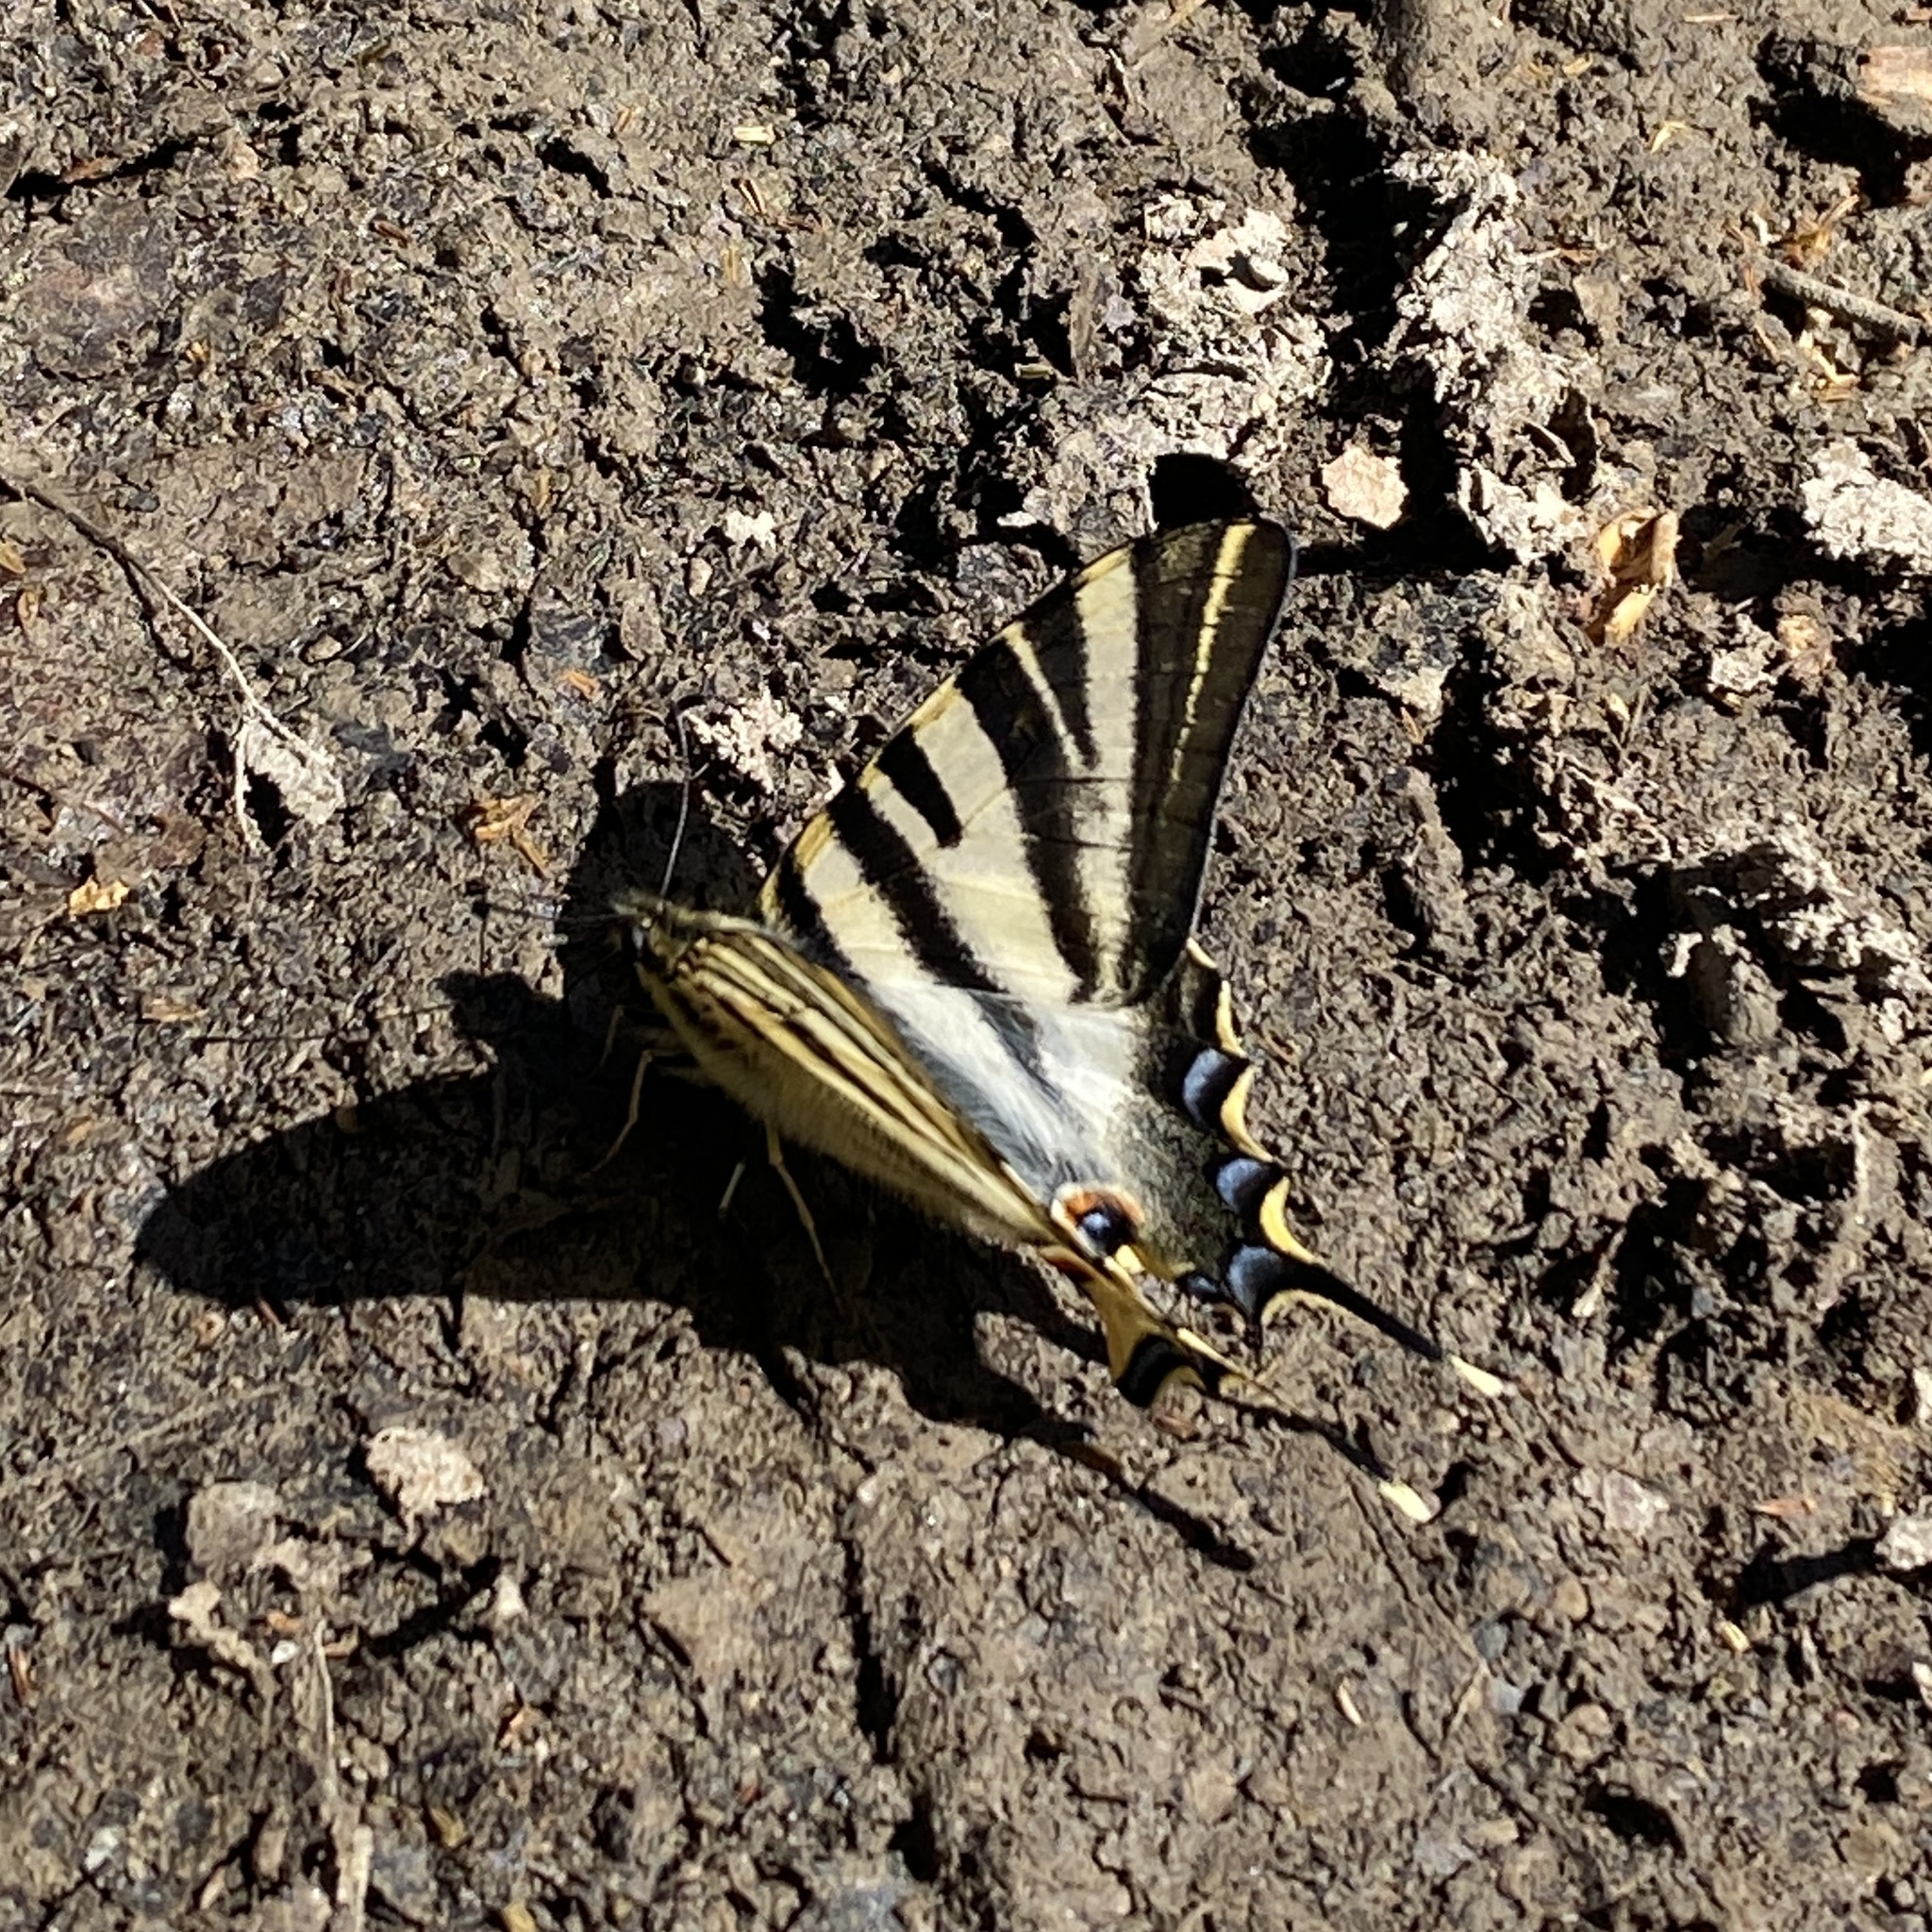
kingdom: Animalia
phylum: Arthropoda
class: Insecta
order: Lepidoptera
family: Papilionidae
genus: Iphiclides
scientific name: Iphiclides feisthamelii
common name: Iberian scarce swallowtail
